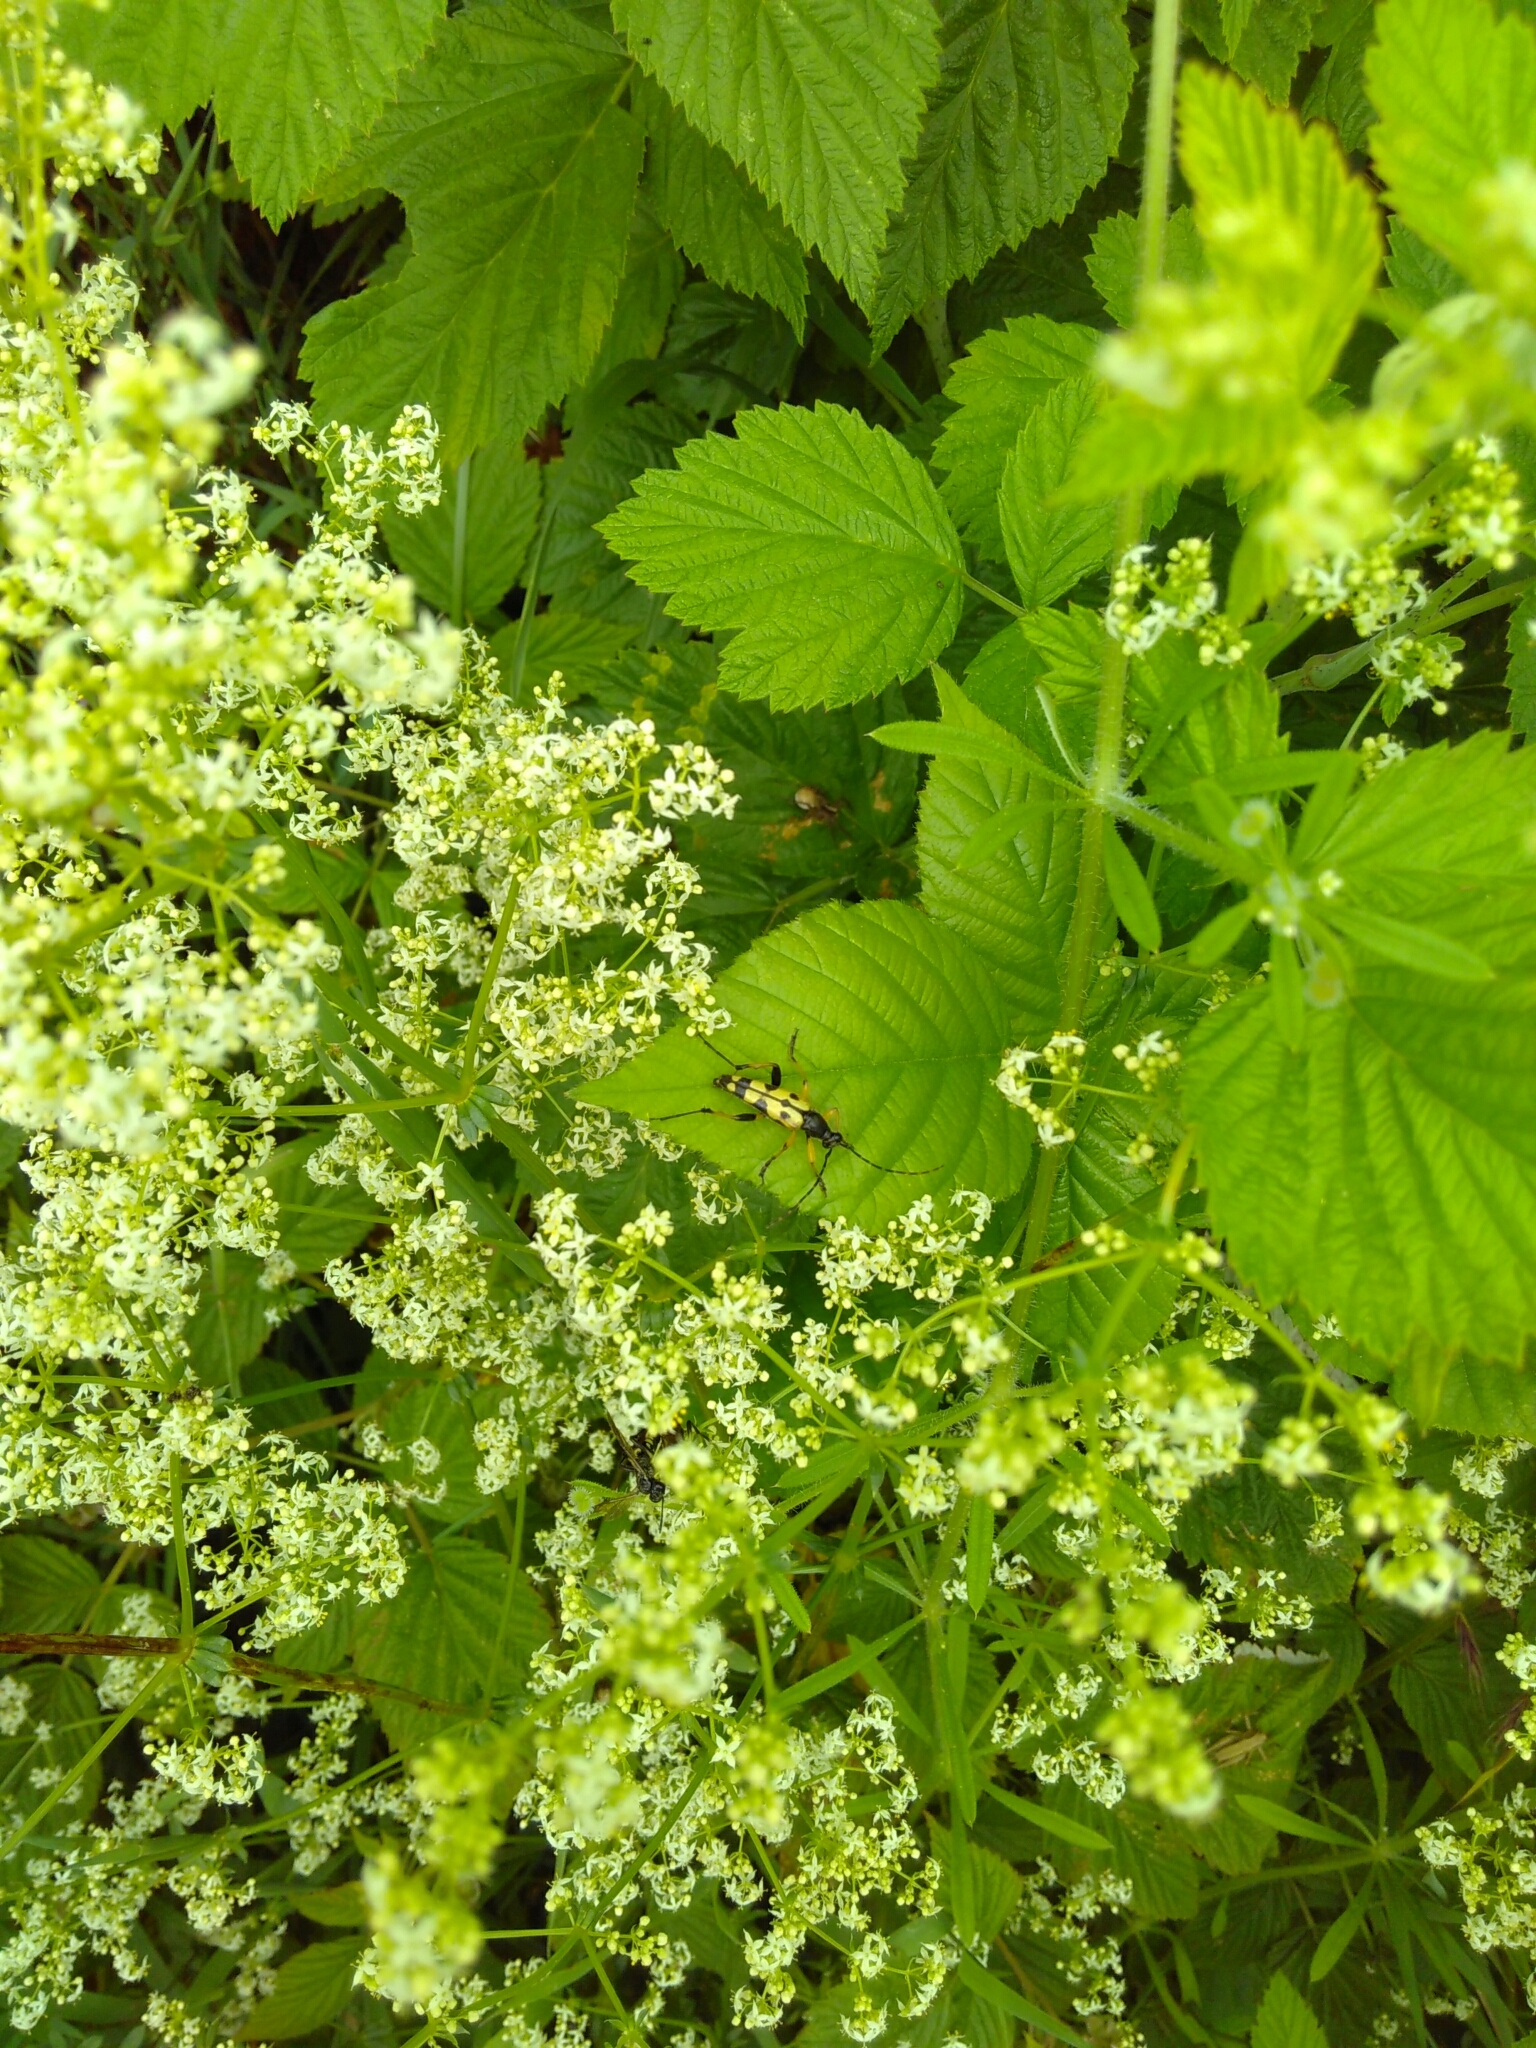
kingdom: Animalia
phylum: Arthropoda
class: Insecta
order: Coleoptera
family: Cerambycidae
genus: Rutpela
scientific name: Rutpela maculata
